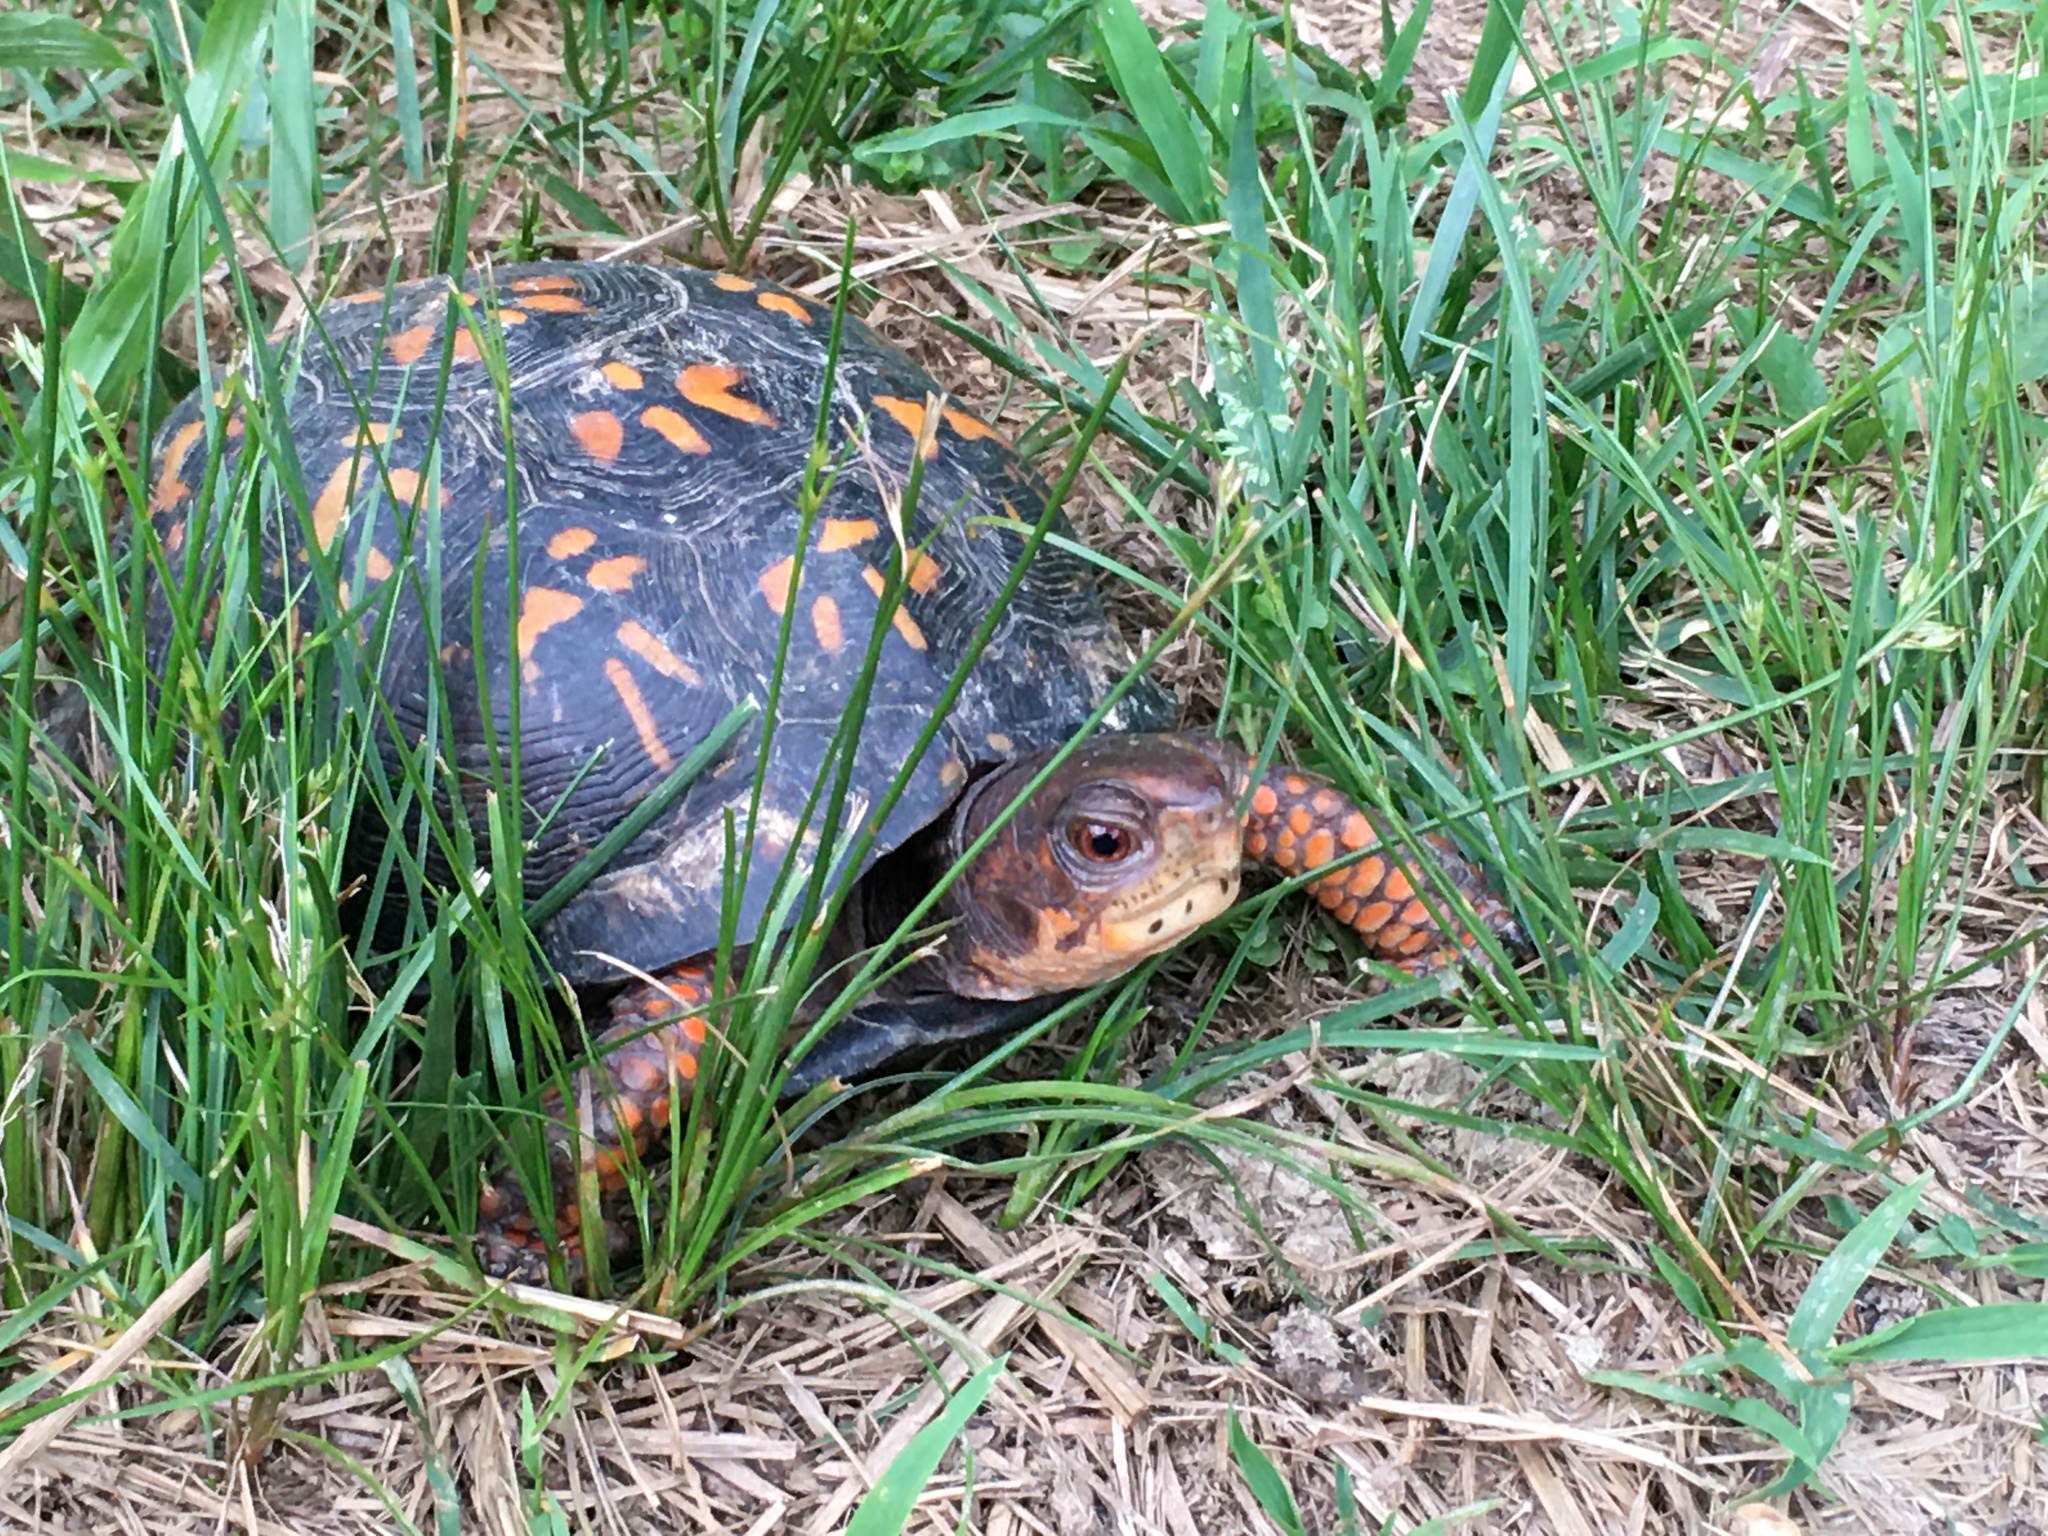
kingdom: Animalia
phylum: Chordata
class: Testudines
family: Emydidae
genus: Terrapene
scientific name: Terrapene carolina
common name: Common box turtle
